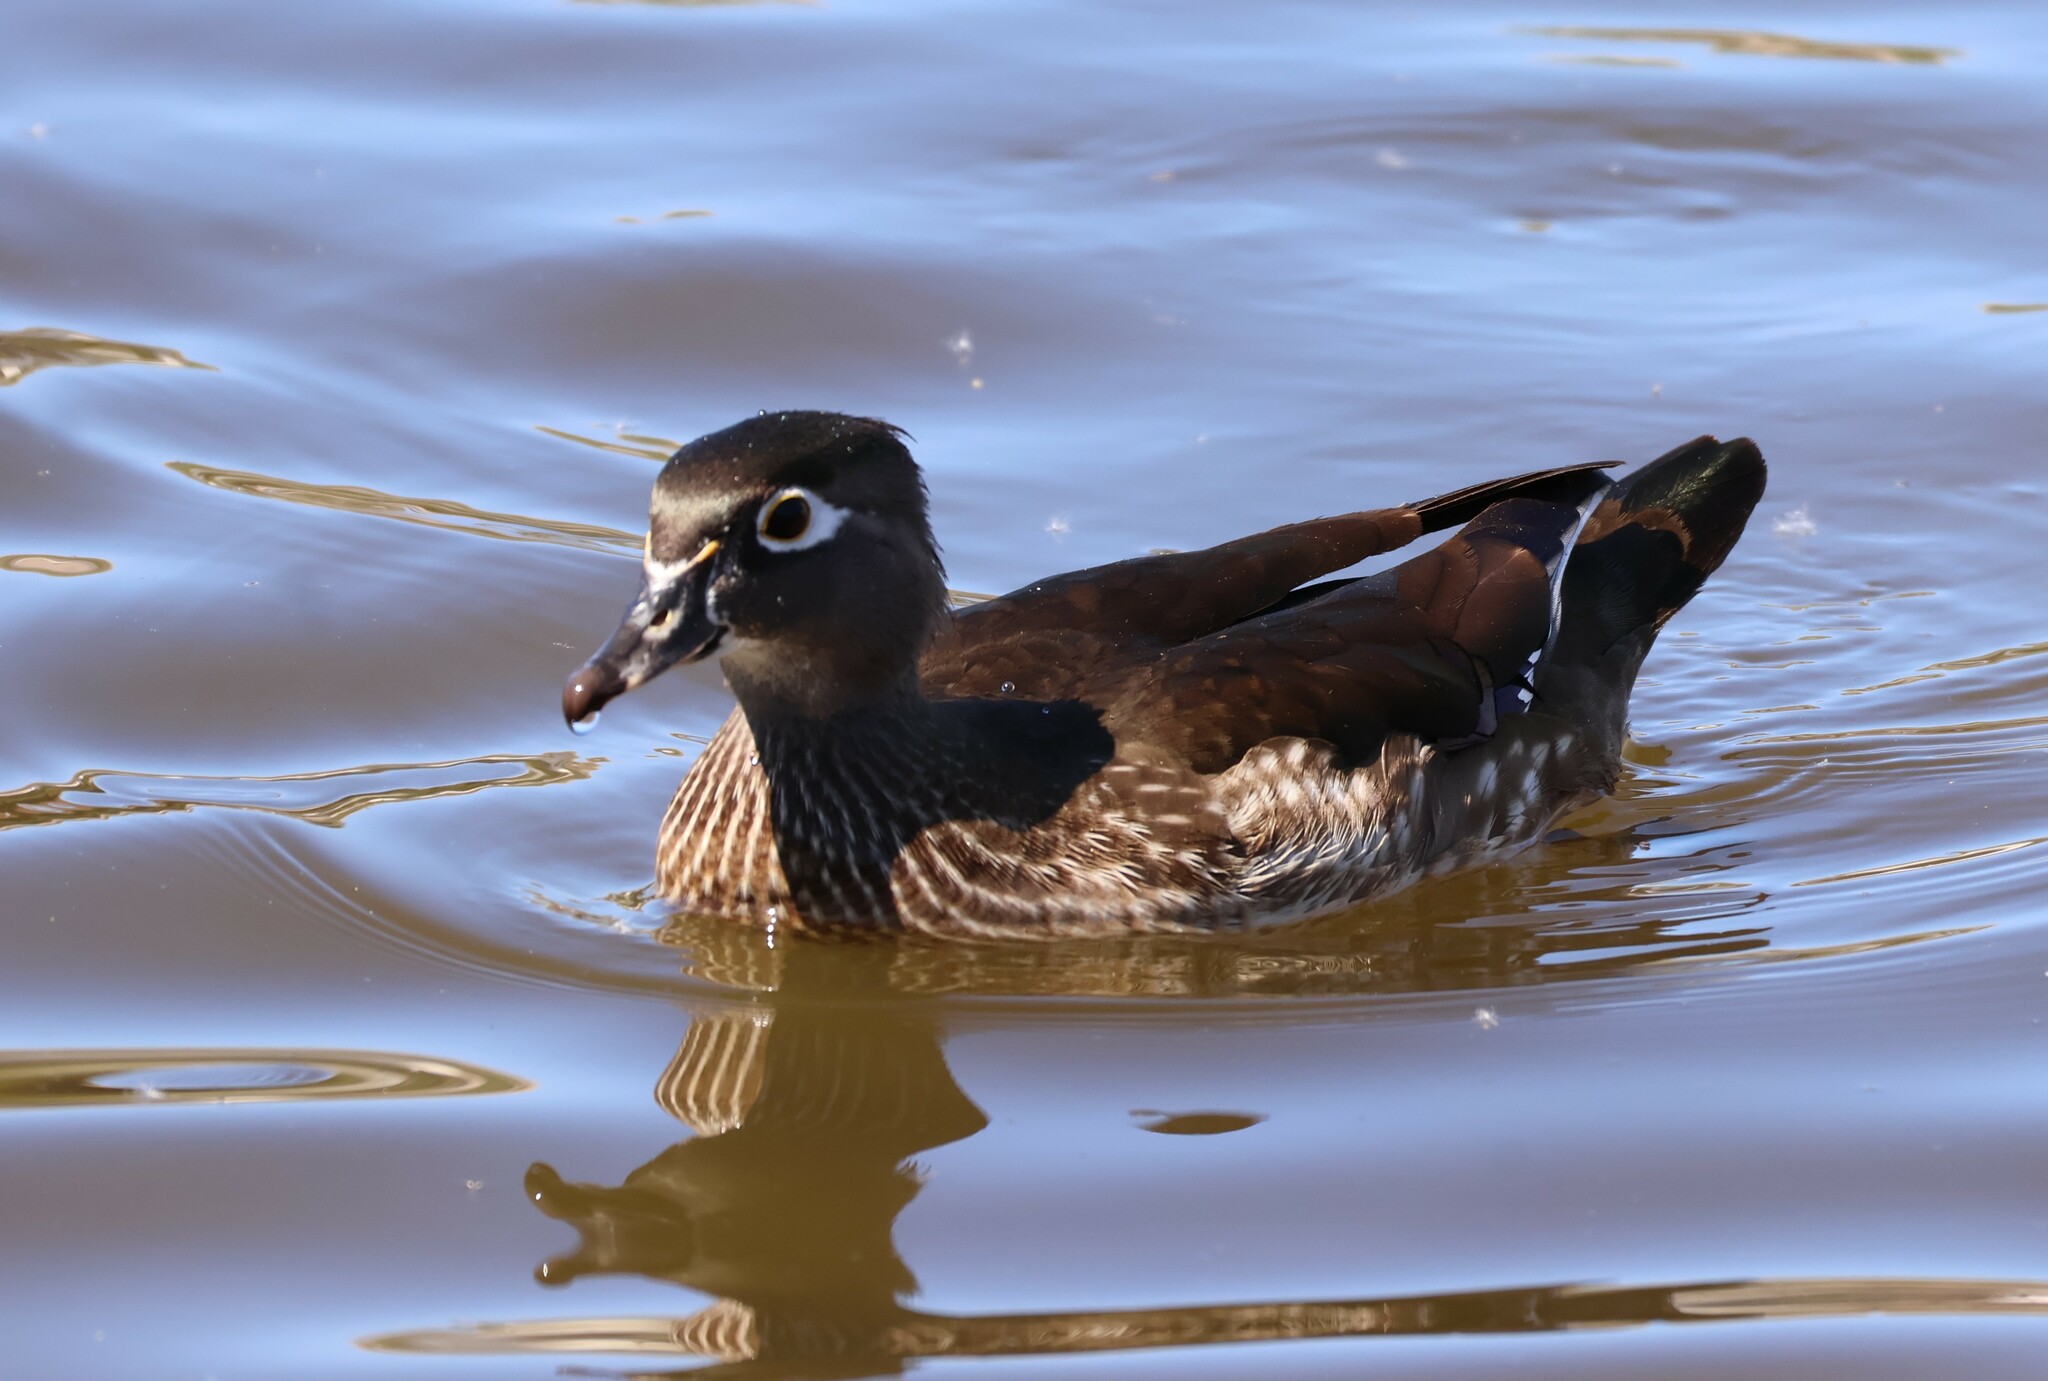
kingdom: Animalia
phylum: Chordata
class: Aves
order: Anseriformes
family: Anatidae
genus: Aix
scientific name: Aix sponsa
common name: Wood duck
